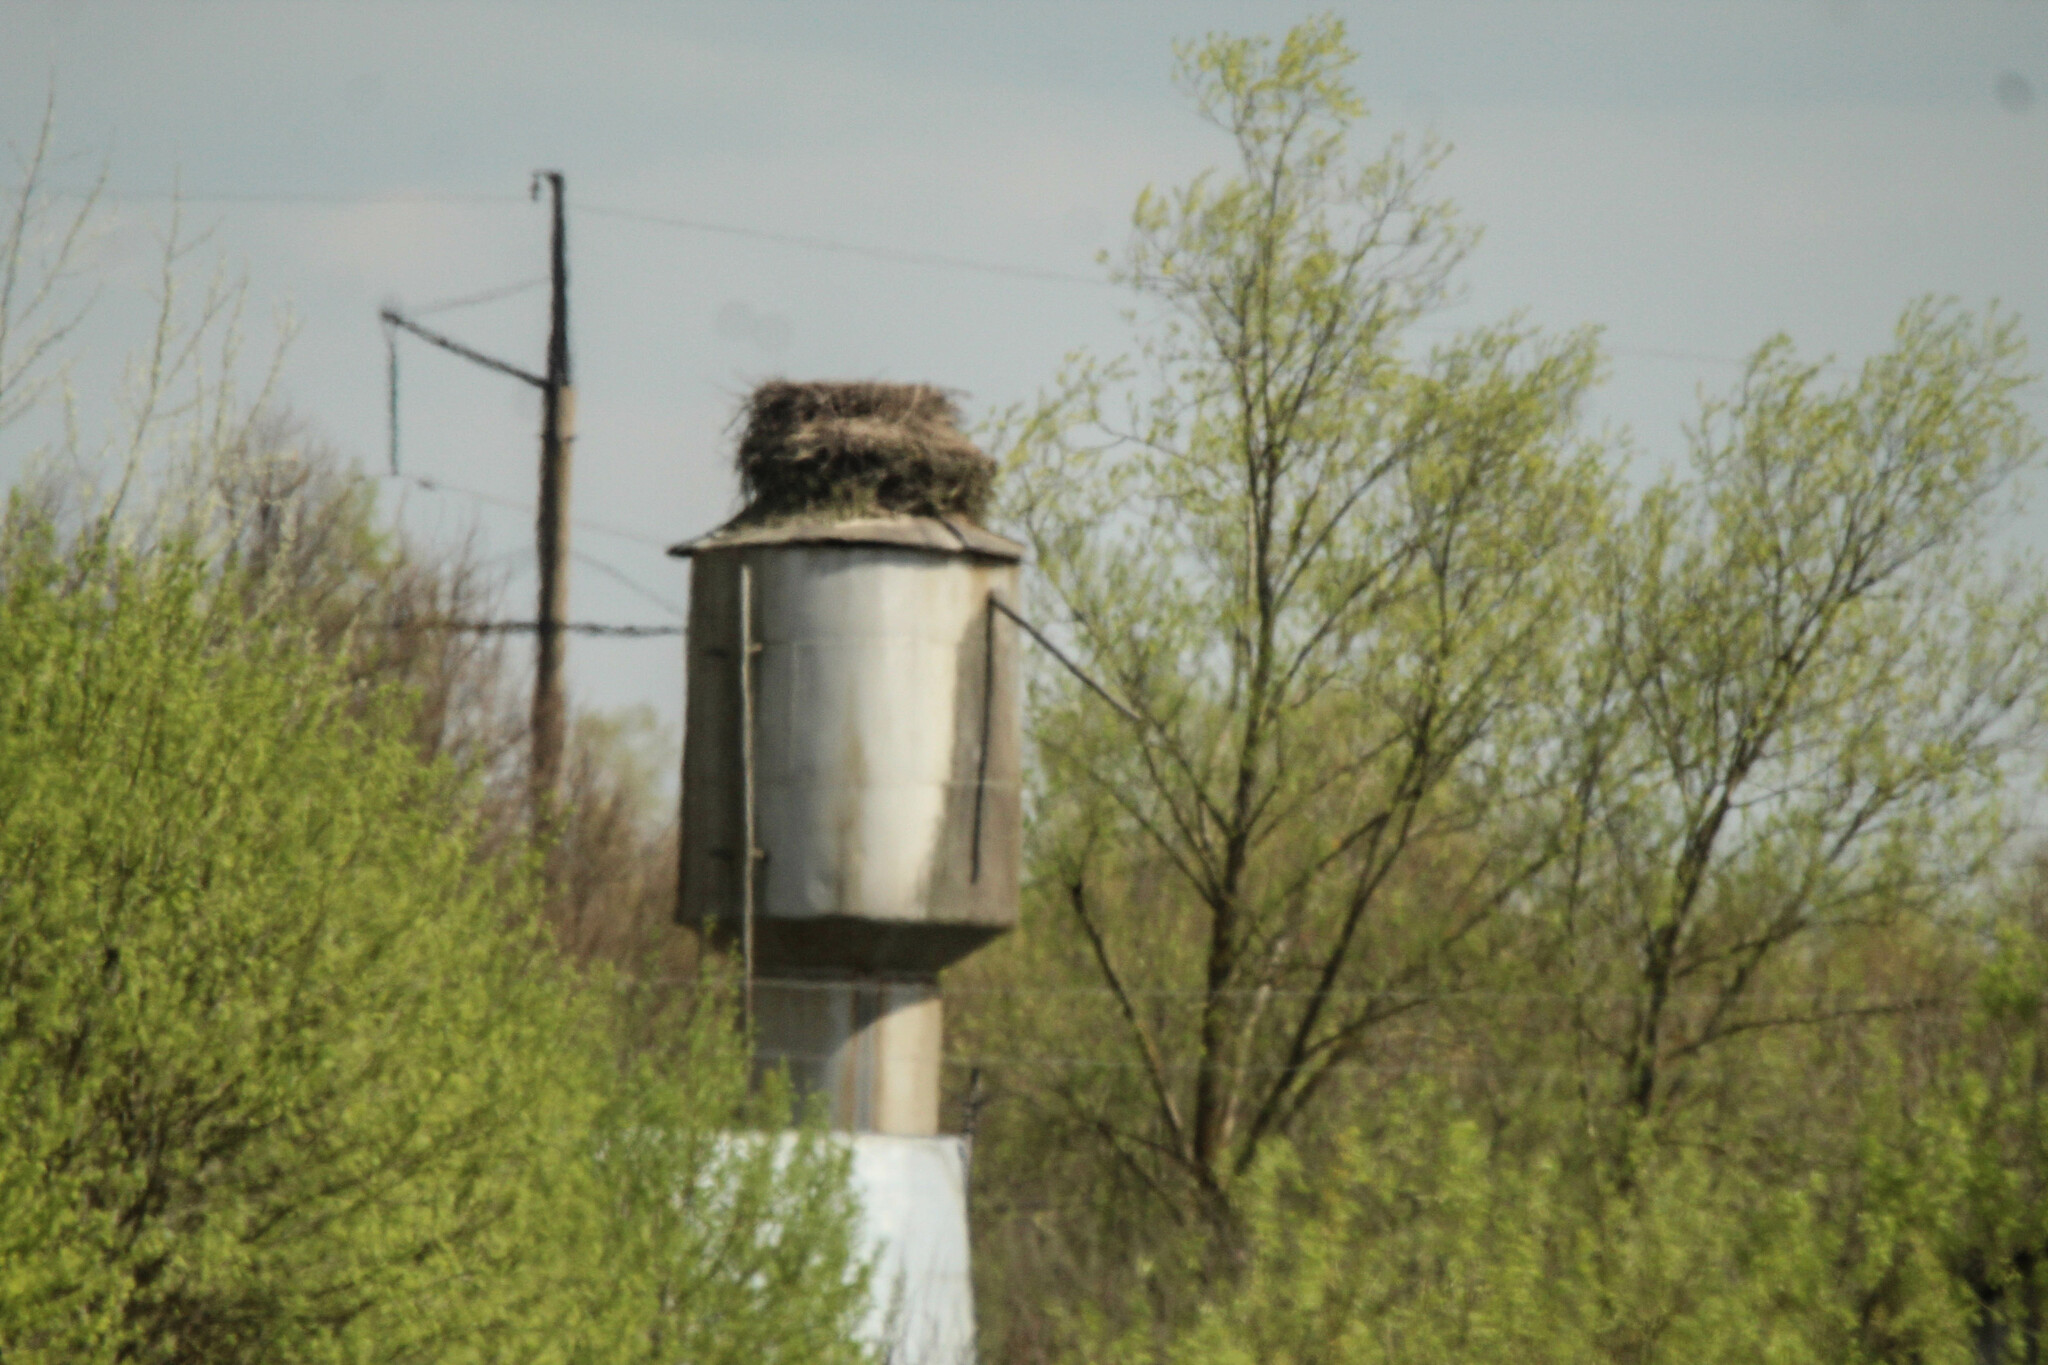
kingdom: Animalia
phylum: Chordata
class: Aves
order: Ciconiiformes
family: Ciconiidae
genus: Ciconia
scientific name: Ciconia ciconia
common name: White stork
